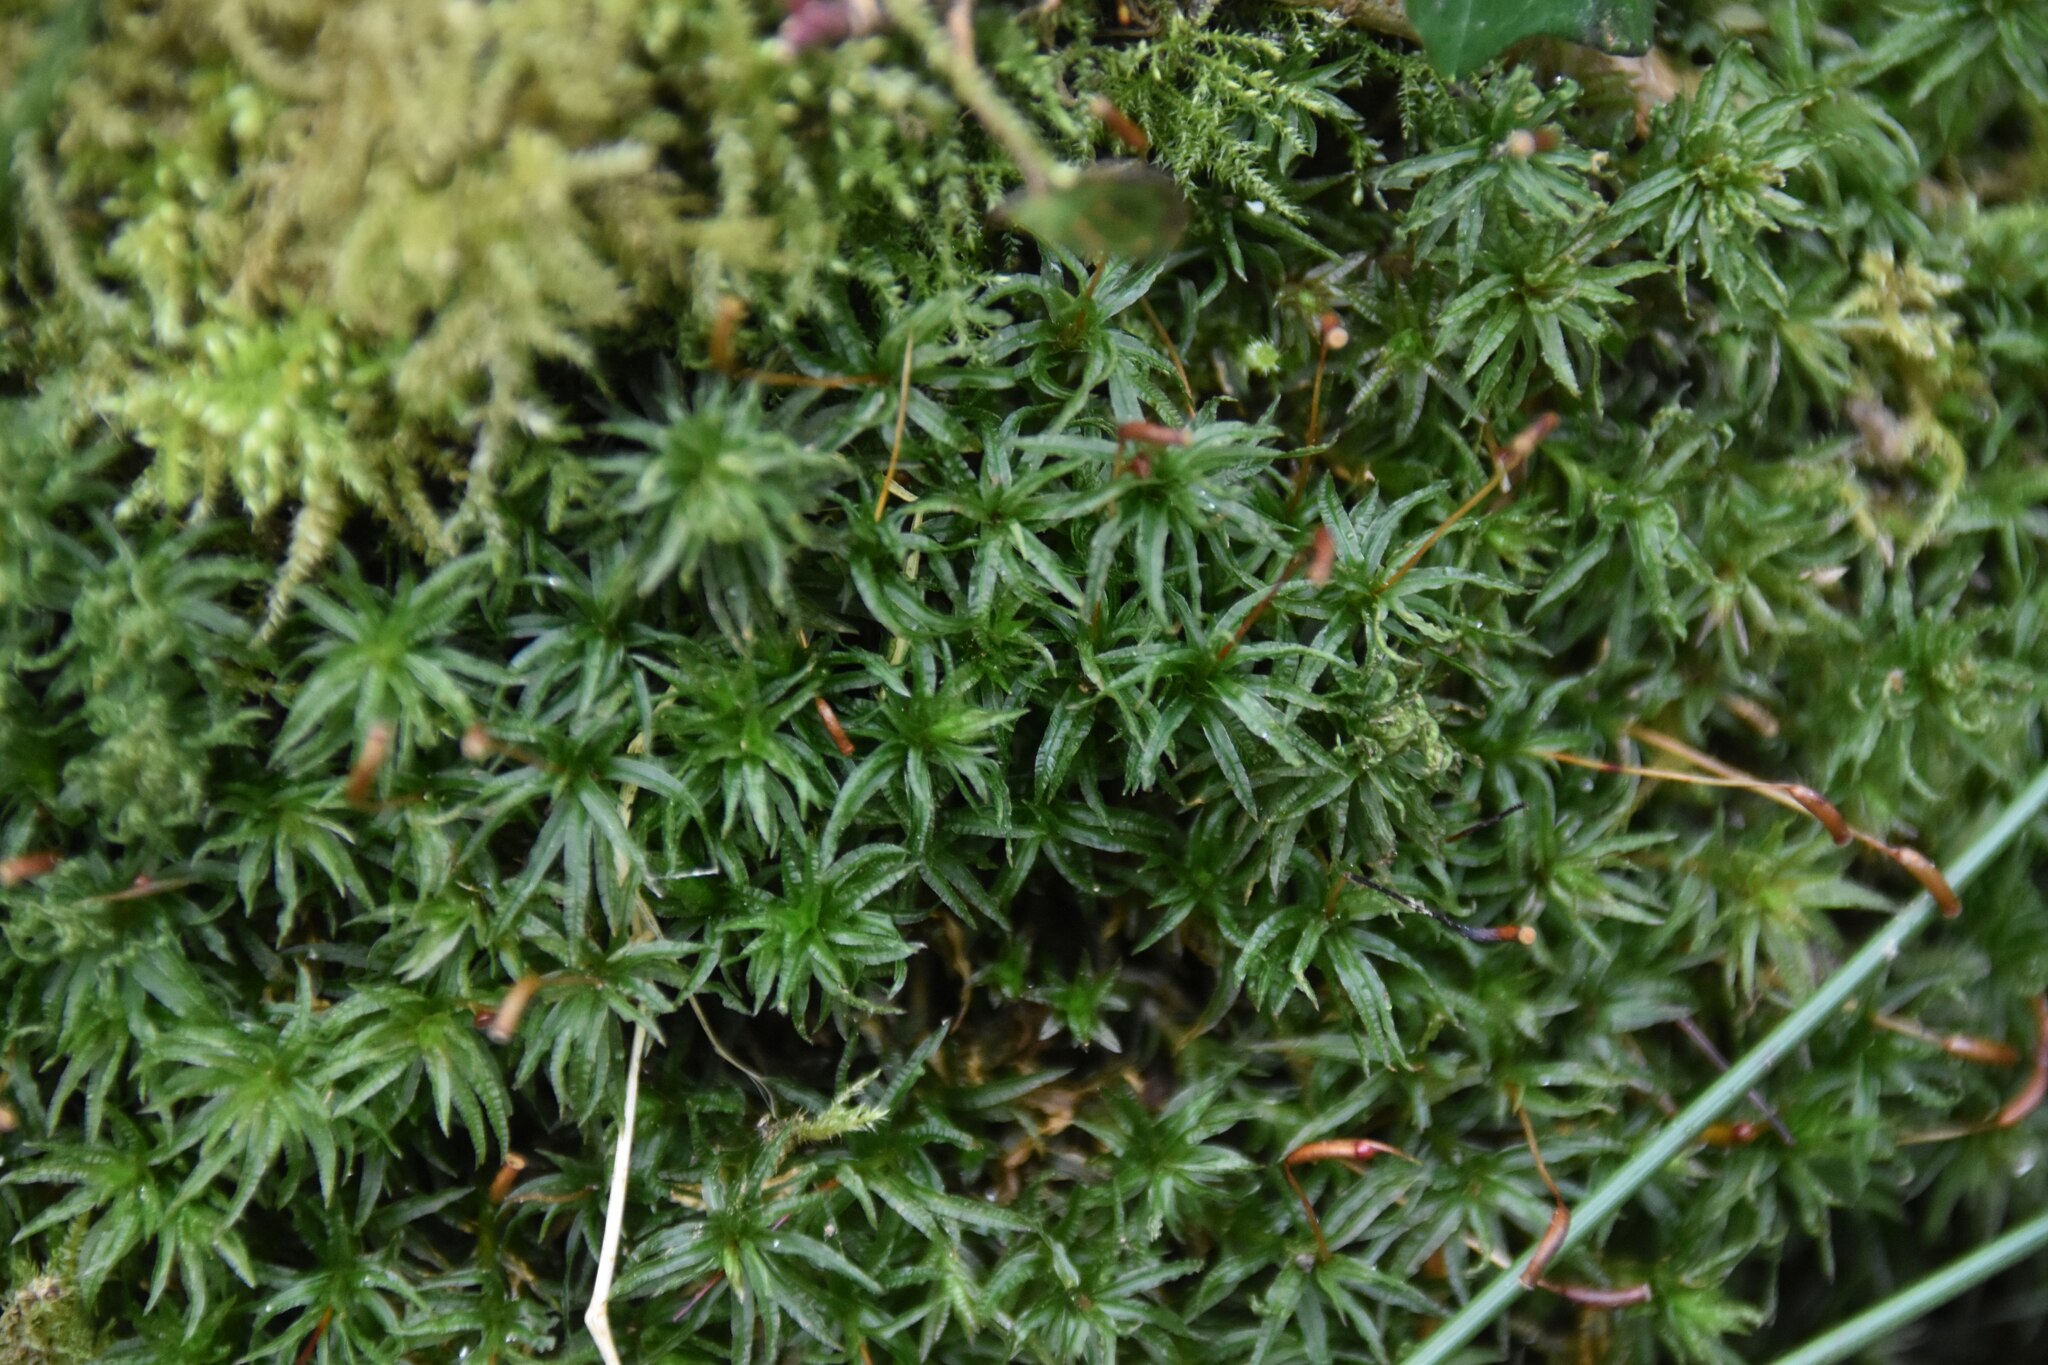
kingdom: Plantae
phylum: Bryophyta
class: Polytrichopsida
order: Polytrichales
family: Polytrichaceae
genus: Atrichum
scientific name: Atrichum undulatum
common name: Common smoothcap
